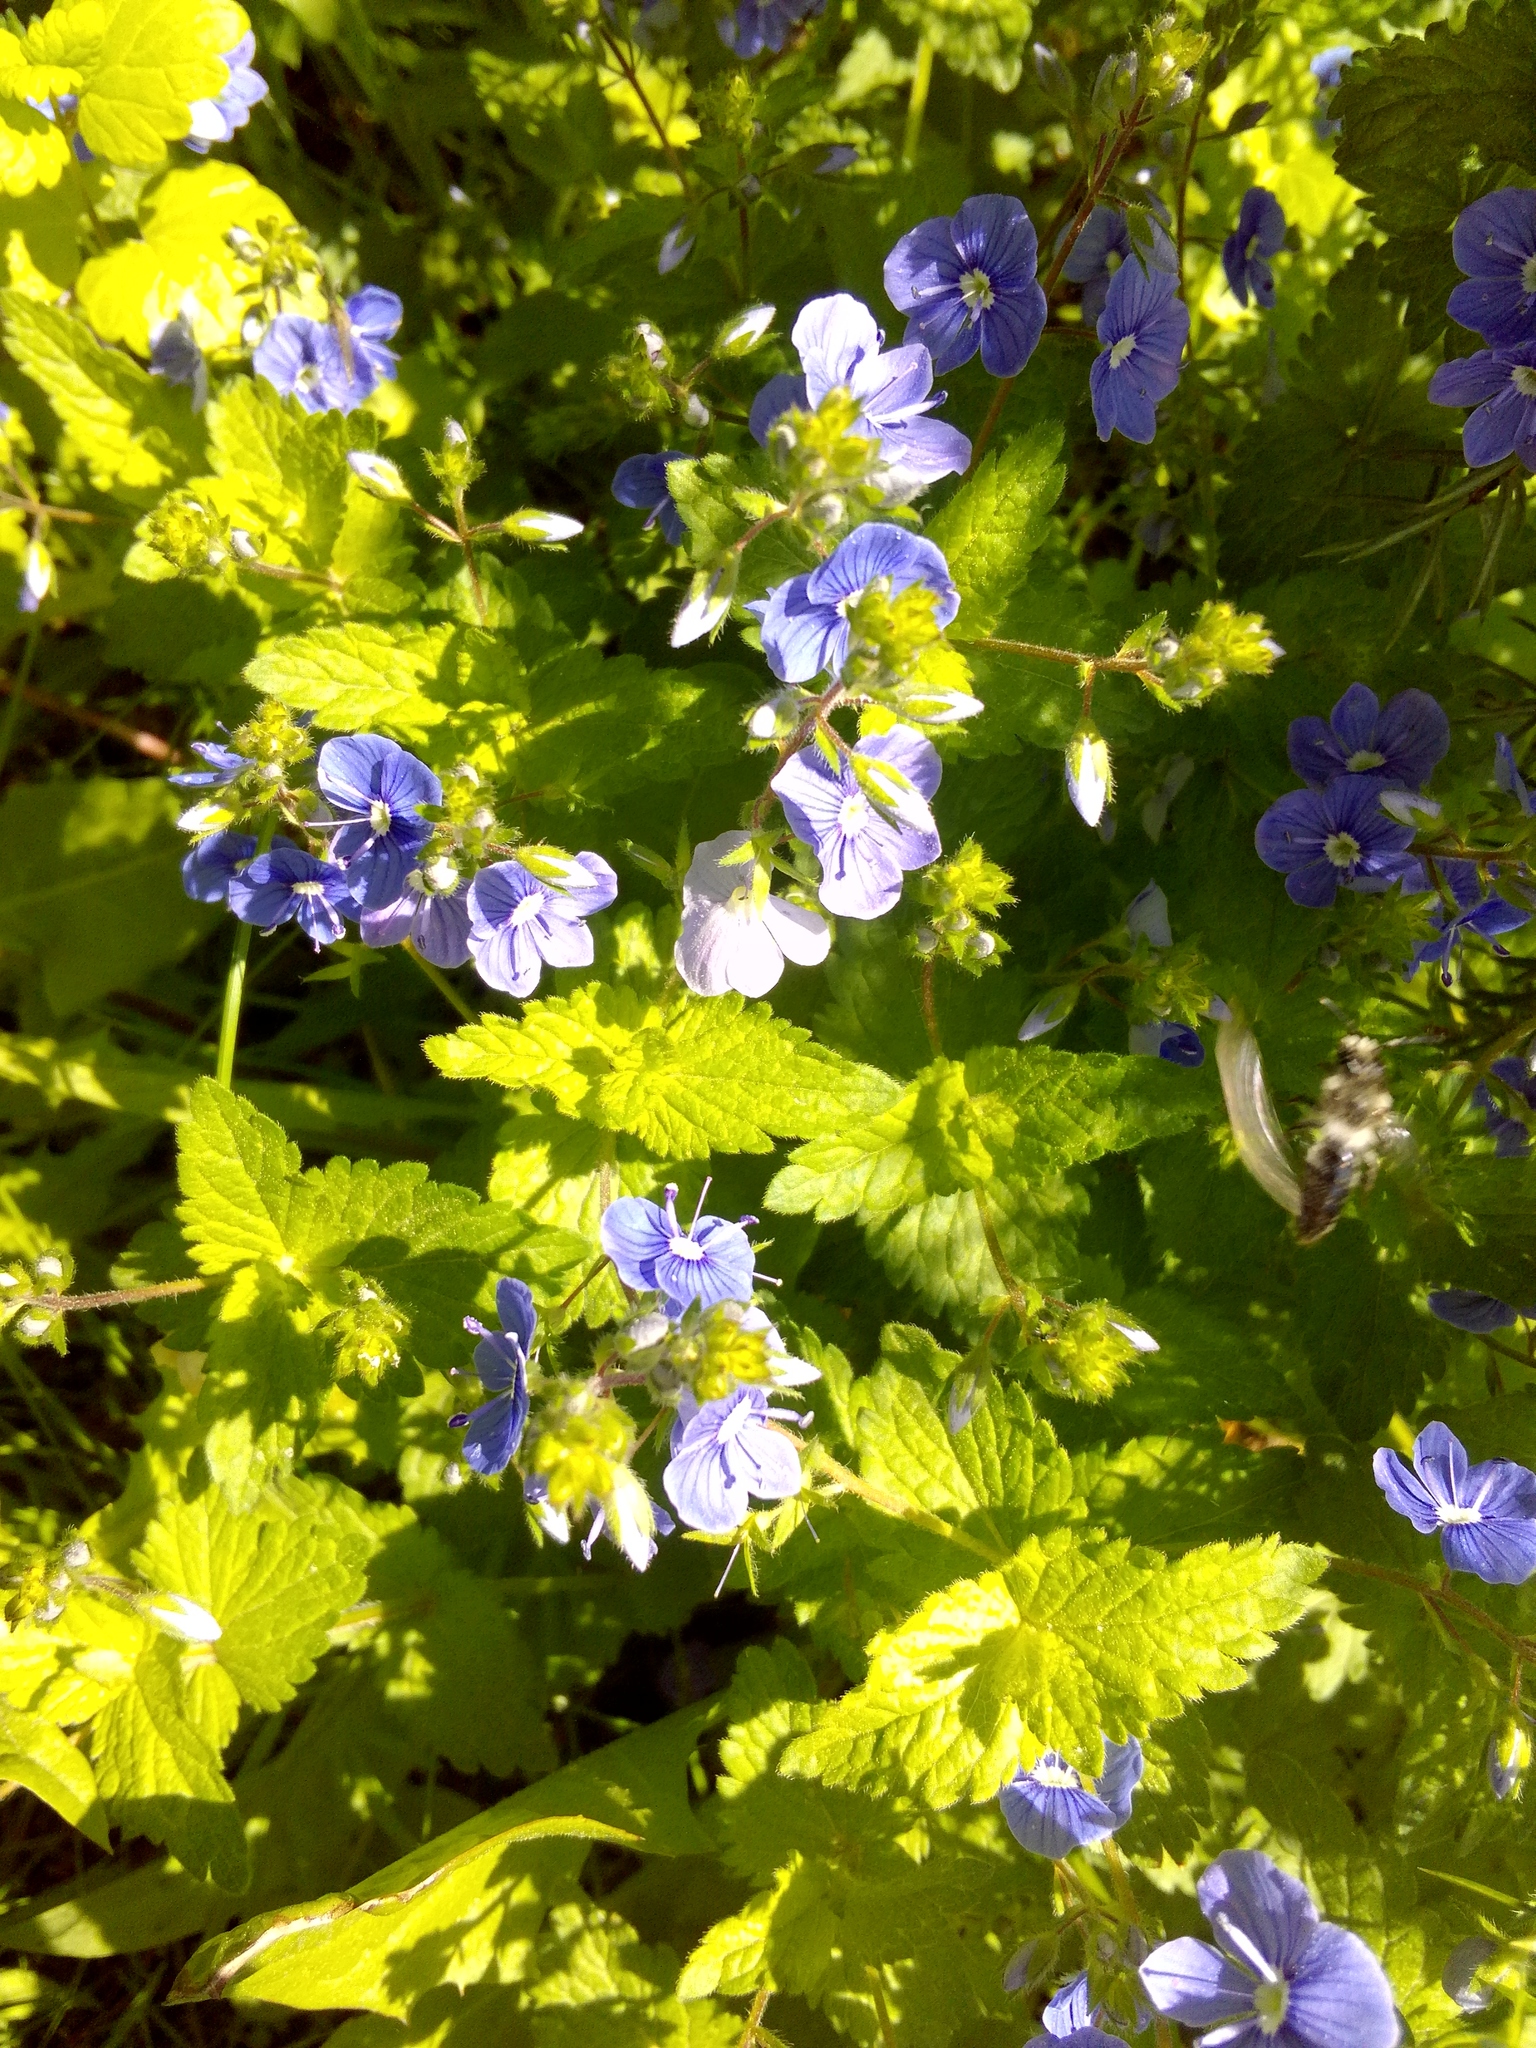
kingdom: Plantae
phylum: Tracheophyta
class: Magnoliopsida
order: Lamiales
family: Plantaginaceae
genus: Veronica
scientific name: Veronica chamaedrys
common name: Germander speedwell
